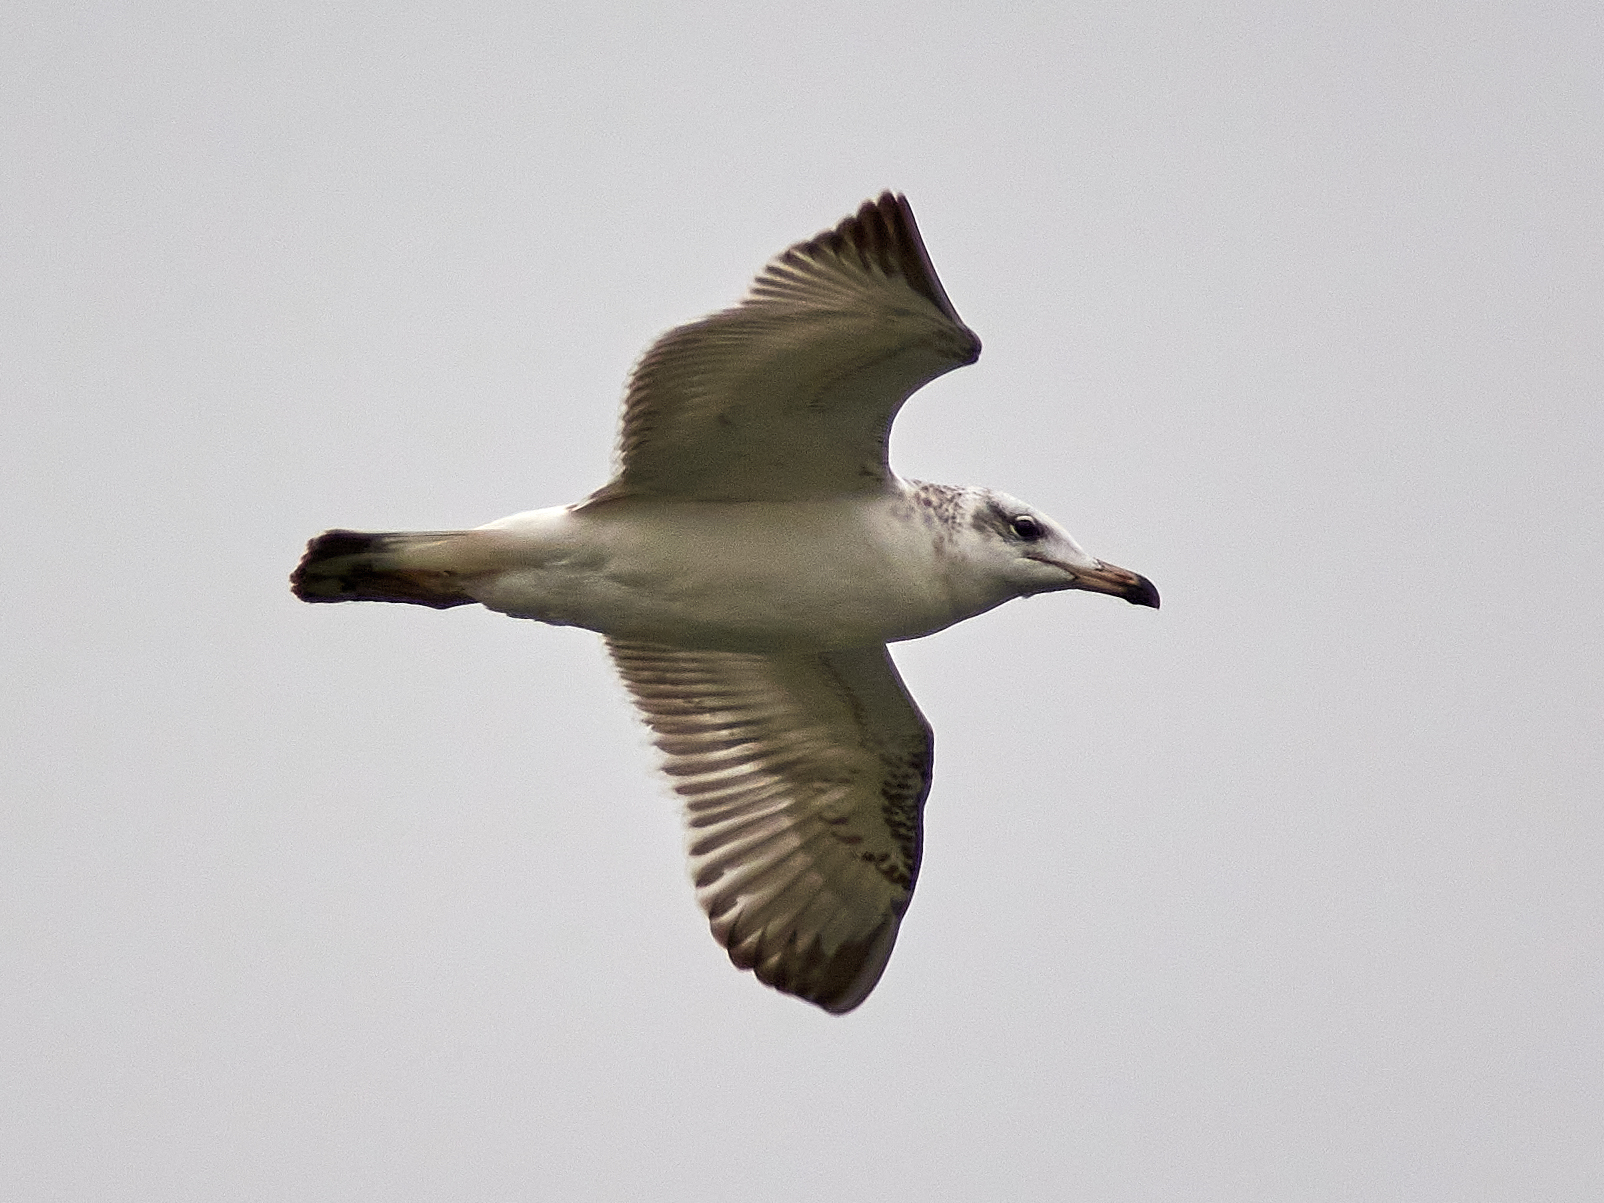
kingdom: Animalia
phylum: Chordata
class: Aves
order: Charadriiformes
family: Laridae
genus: Ichthyaetus
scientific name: Ichthyaetus ichthyaetus
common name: Pallas's gull
